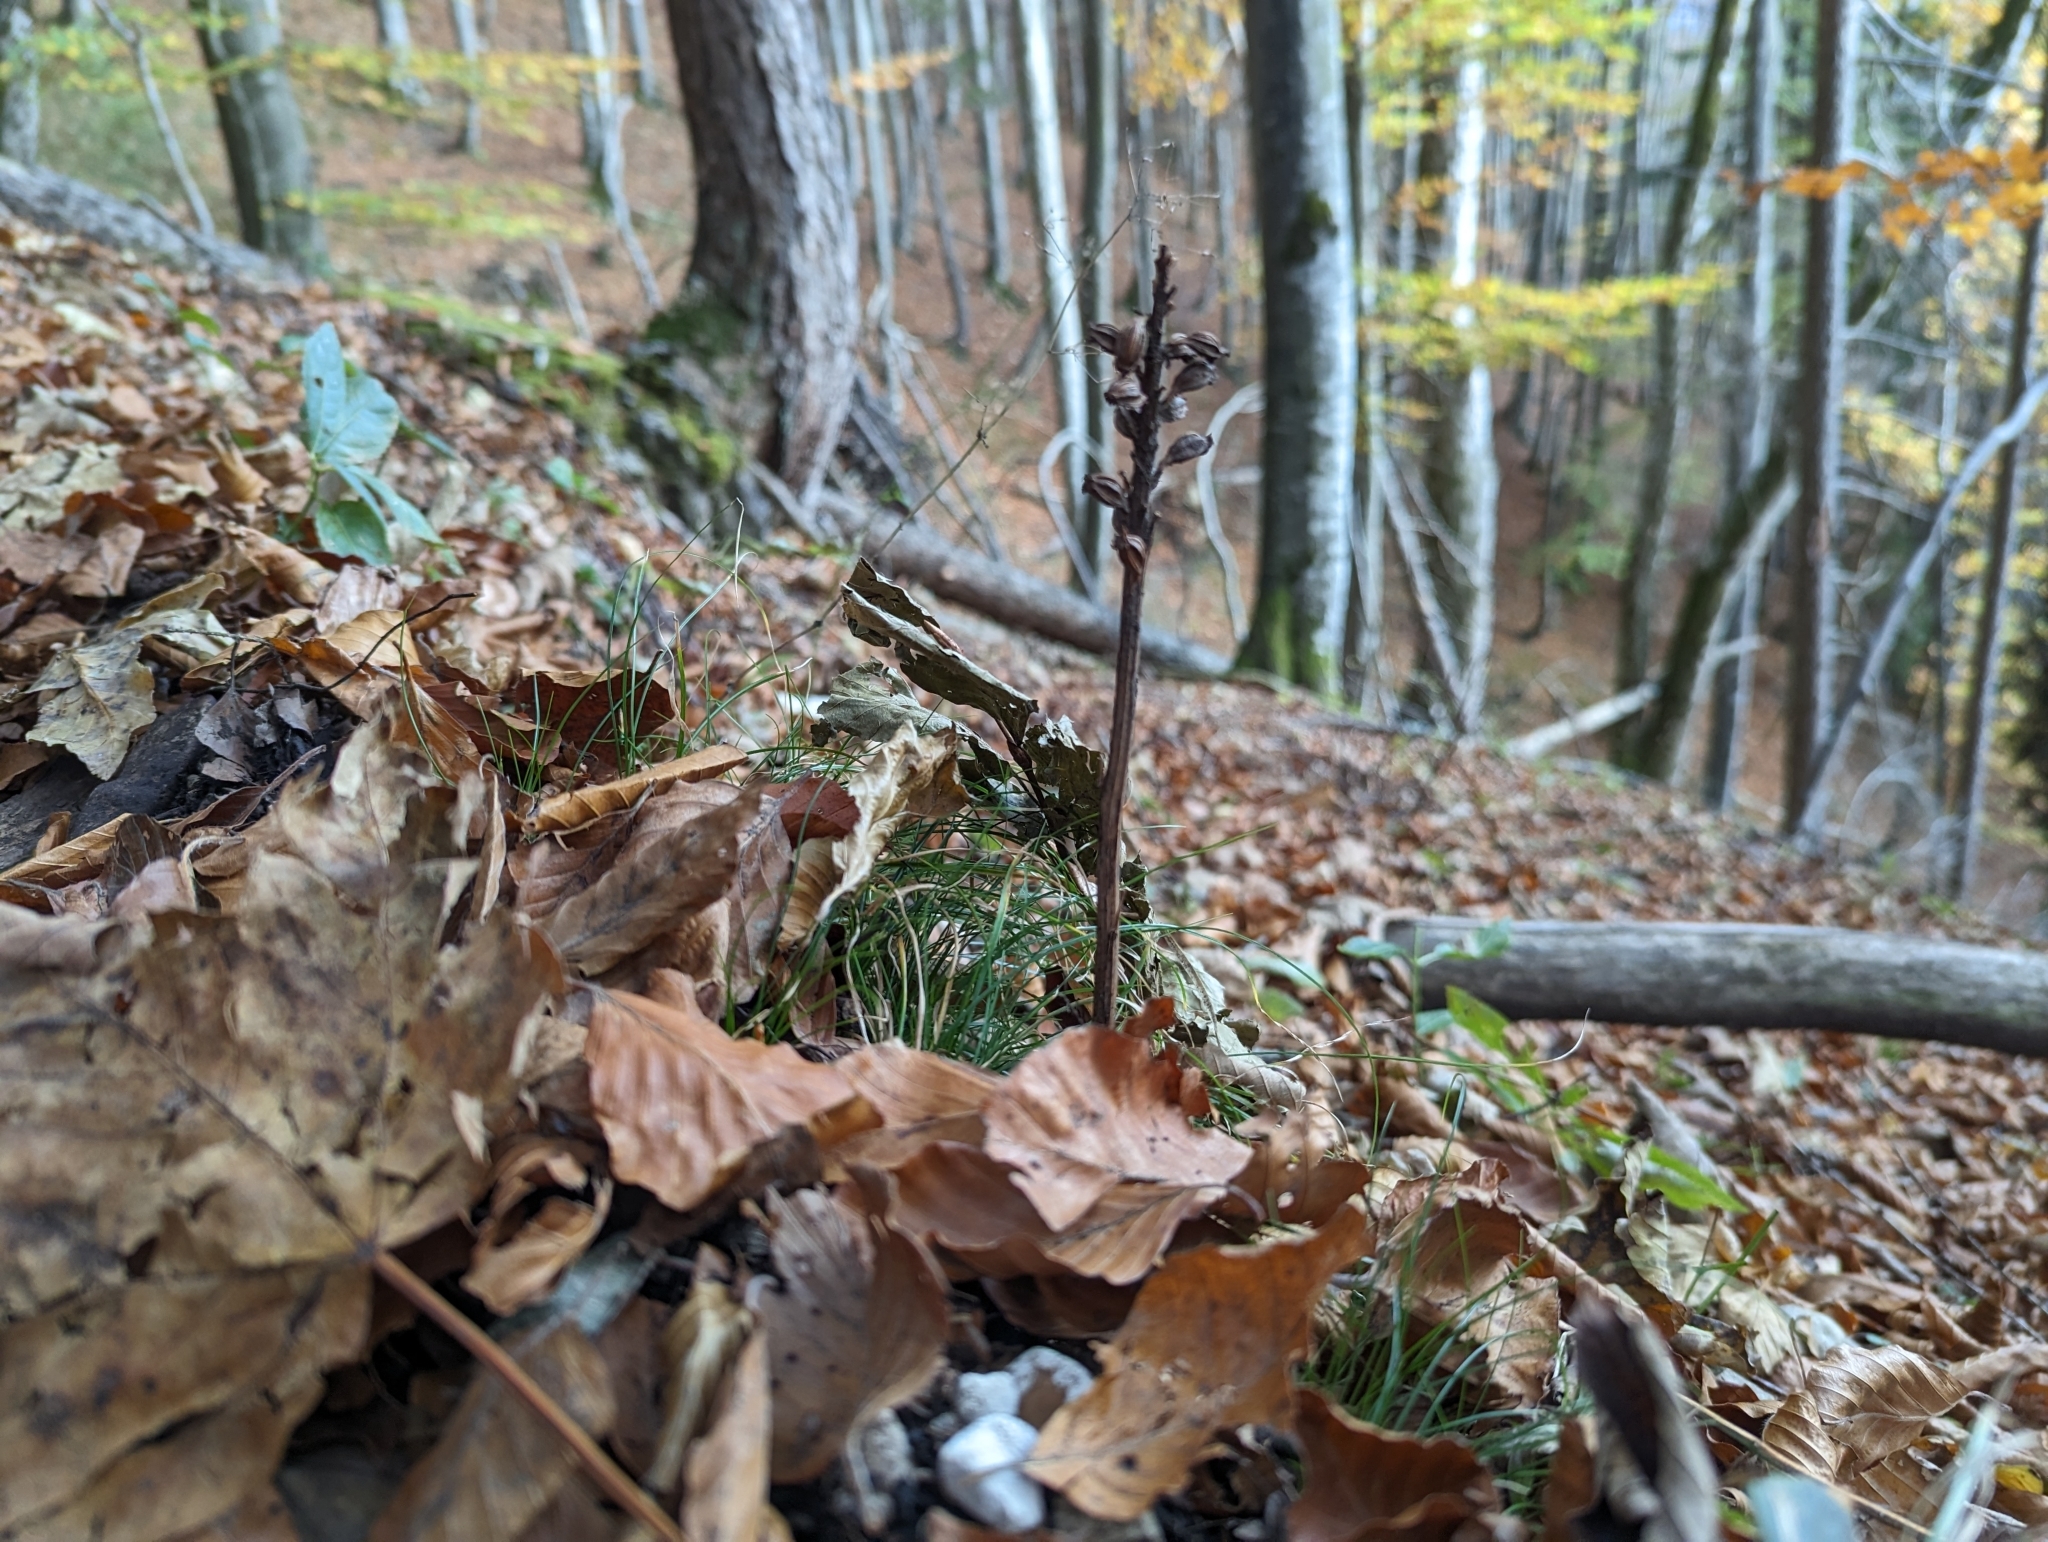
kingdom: Plantae
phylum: Tracheophyta
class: Liliopsida
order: Asparagales
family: Orchidaceae
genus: Neottia
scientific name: Neottia nidus-avis
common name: Bird's-nest orchid
